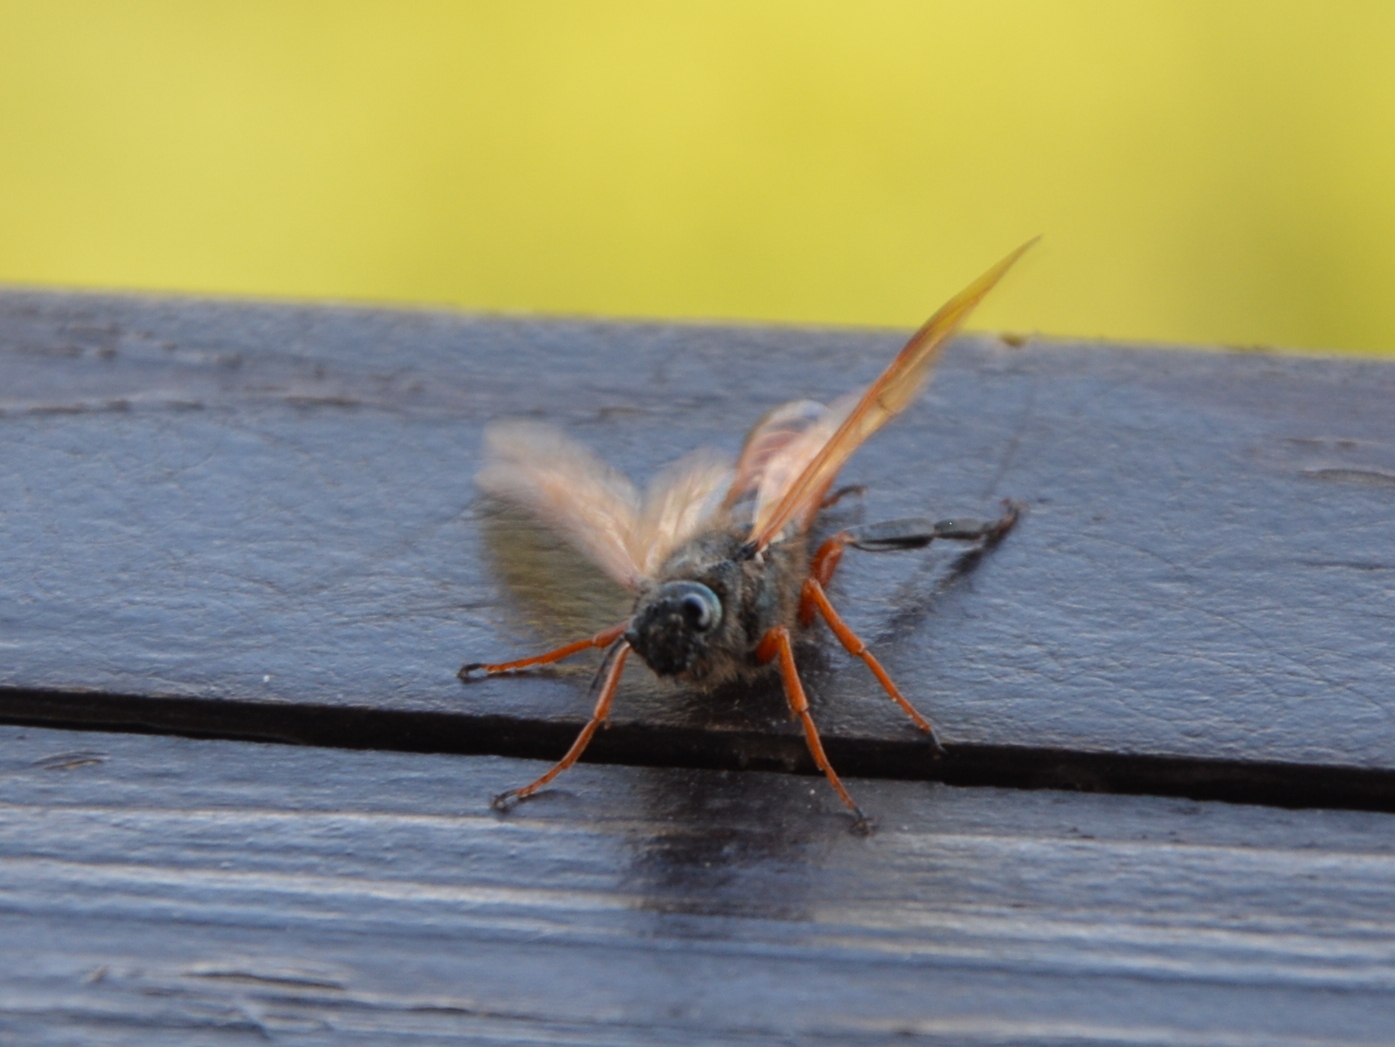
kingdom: Animalia
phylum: Arthropoda
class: Insecta
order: Hymenoptera
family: Siricidae
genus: Sirex
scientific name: Sirex noctilio
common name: Woodwasp
